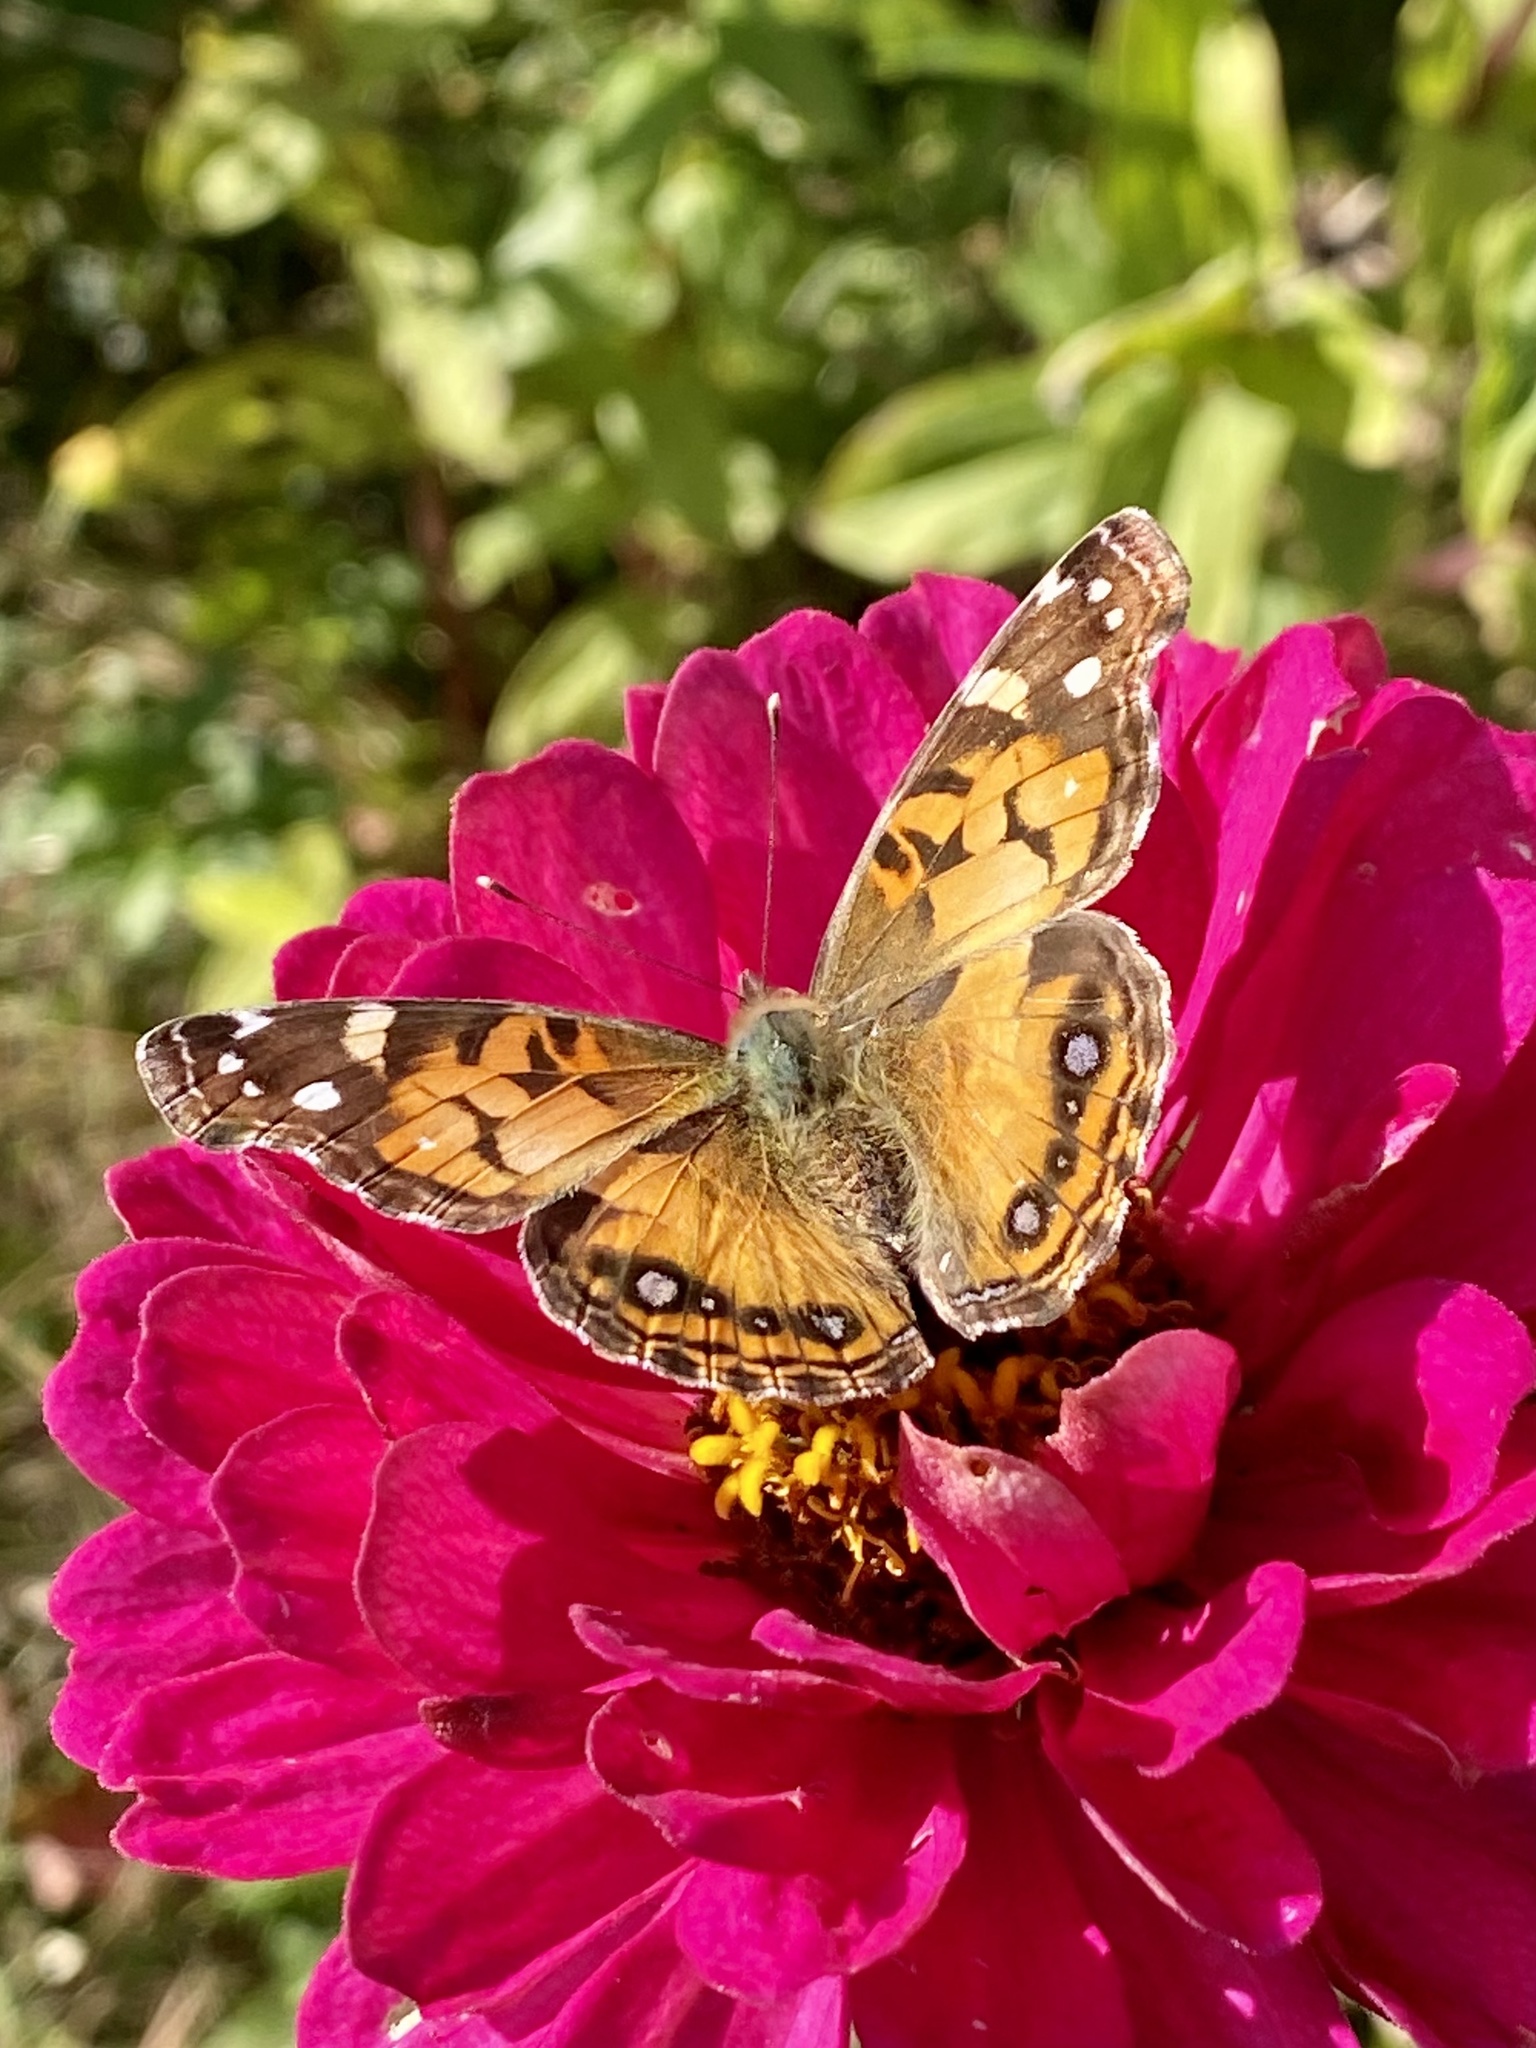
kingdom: Animalia
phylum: Arthropoda
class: Insecta
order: Lepidoptera
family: Nymphalidae
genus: Vanessa
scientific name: Vanessa virginiensis
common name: American lady
